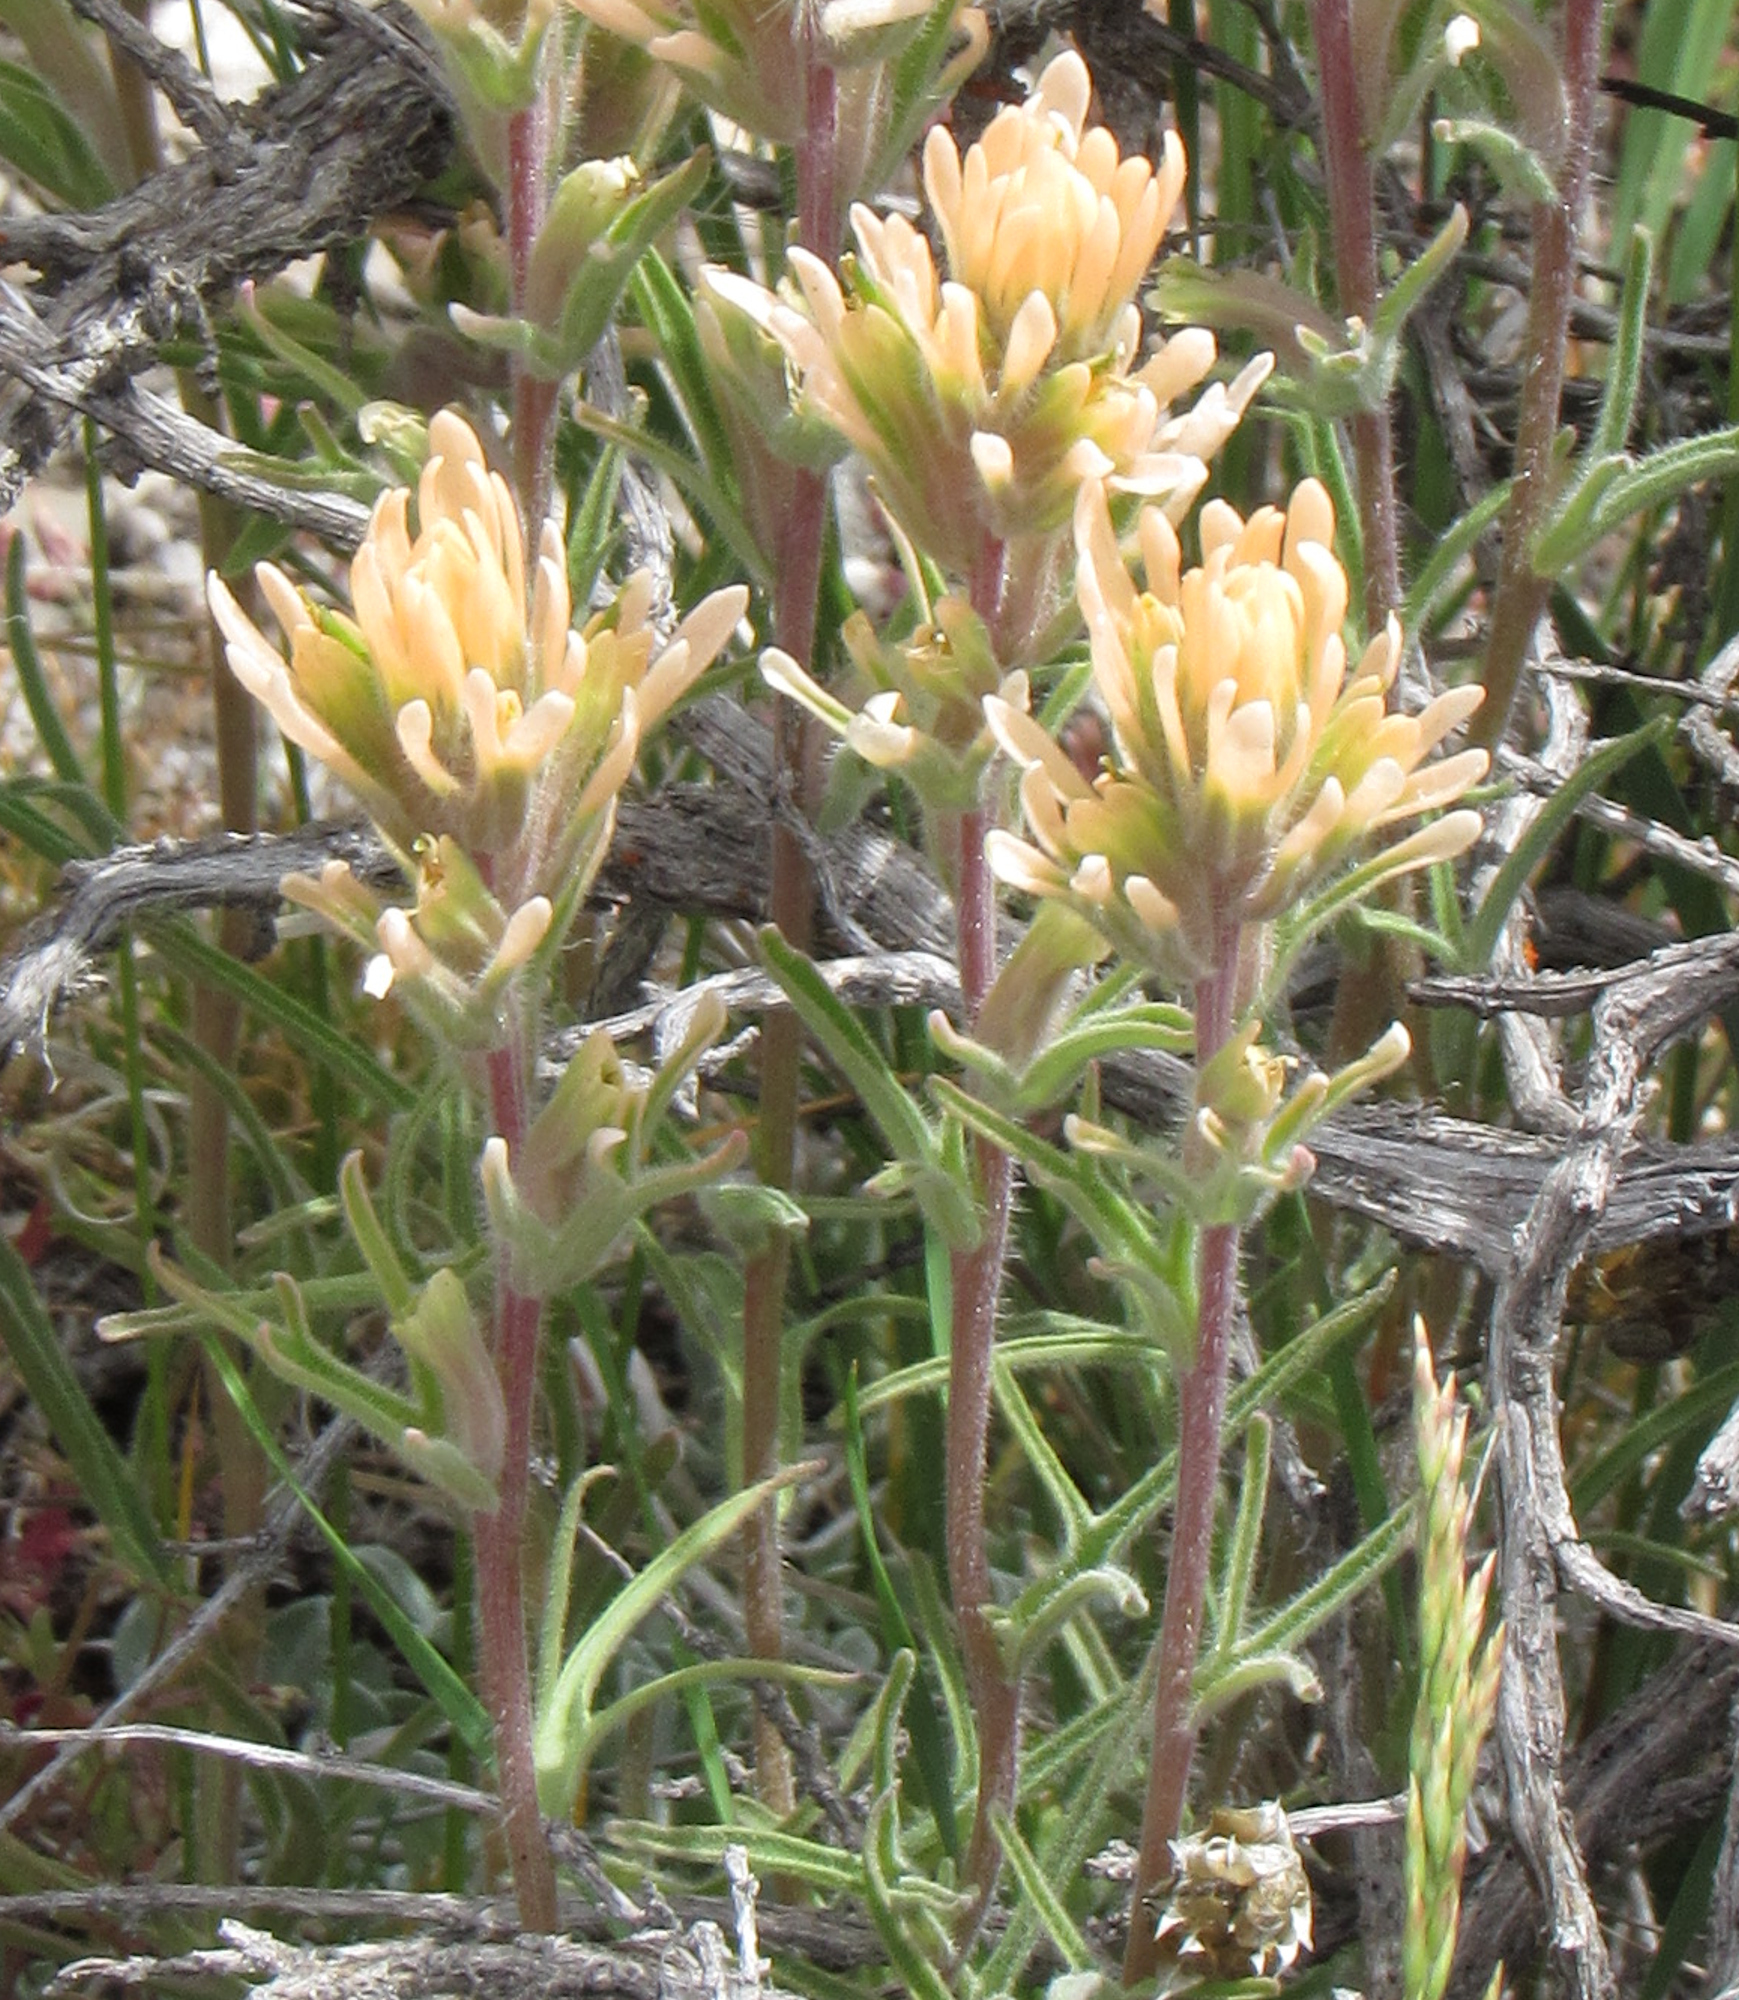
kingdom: Plantae
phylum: Tracheophyta
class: Magnoliopsida
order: Lamiales
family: Orobanchaceae
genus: Castilleja
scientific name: Castilleja angustifolia
